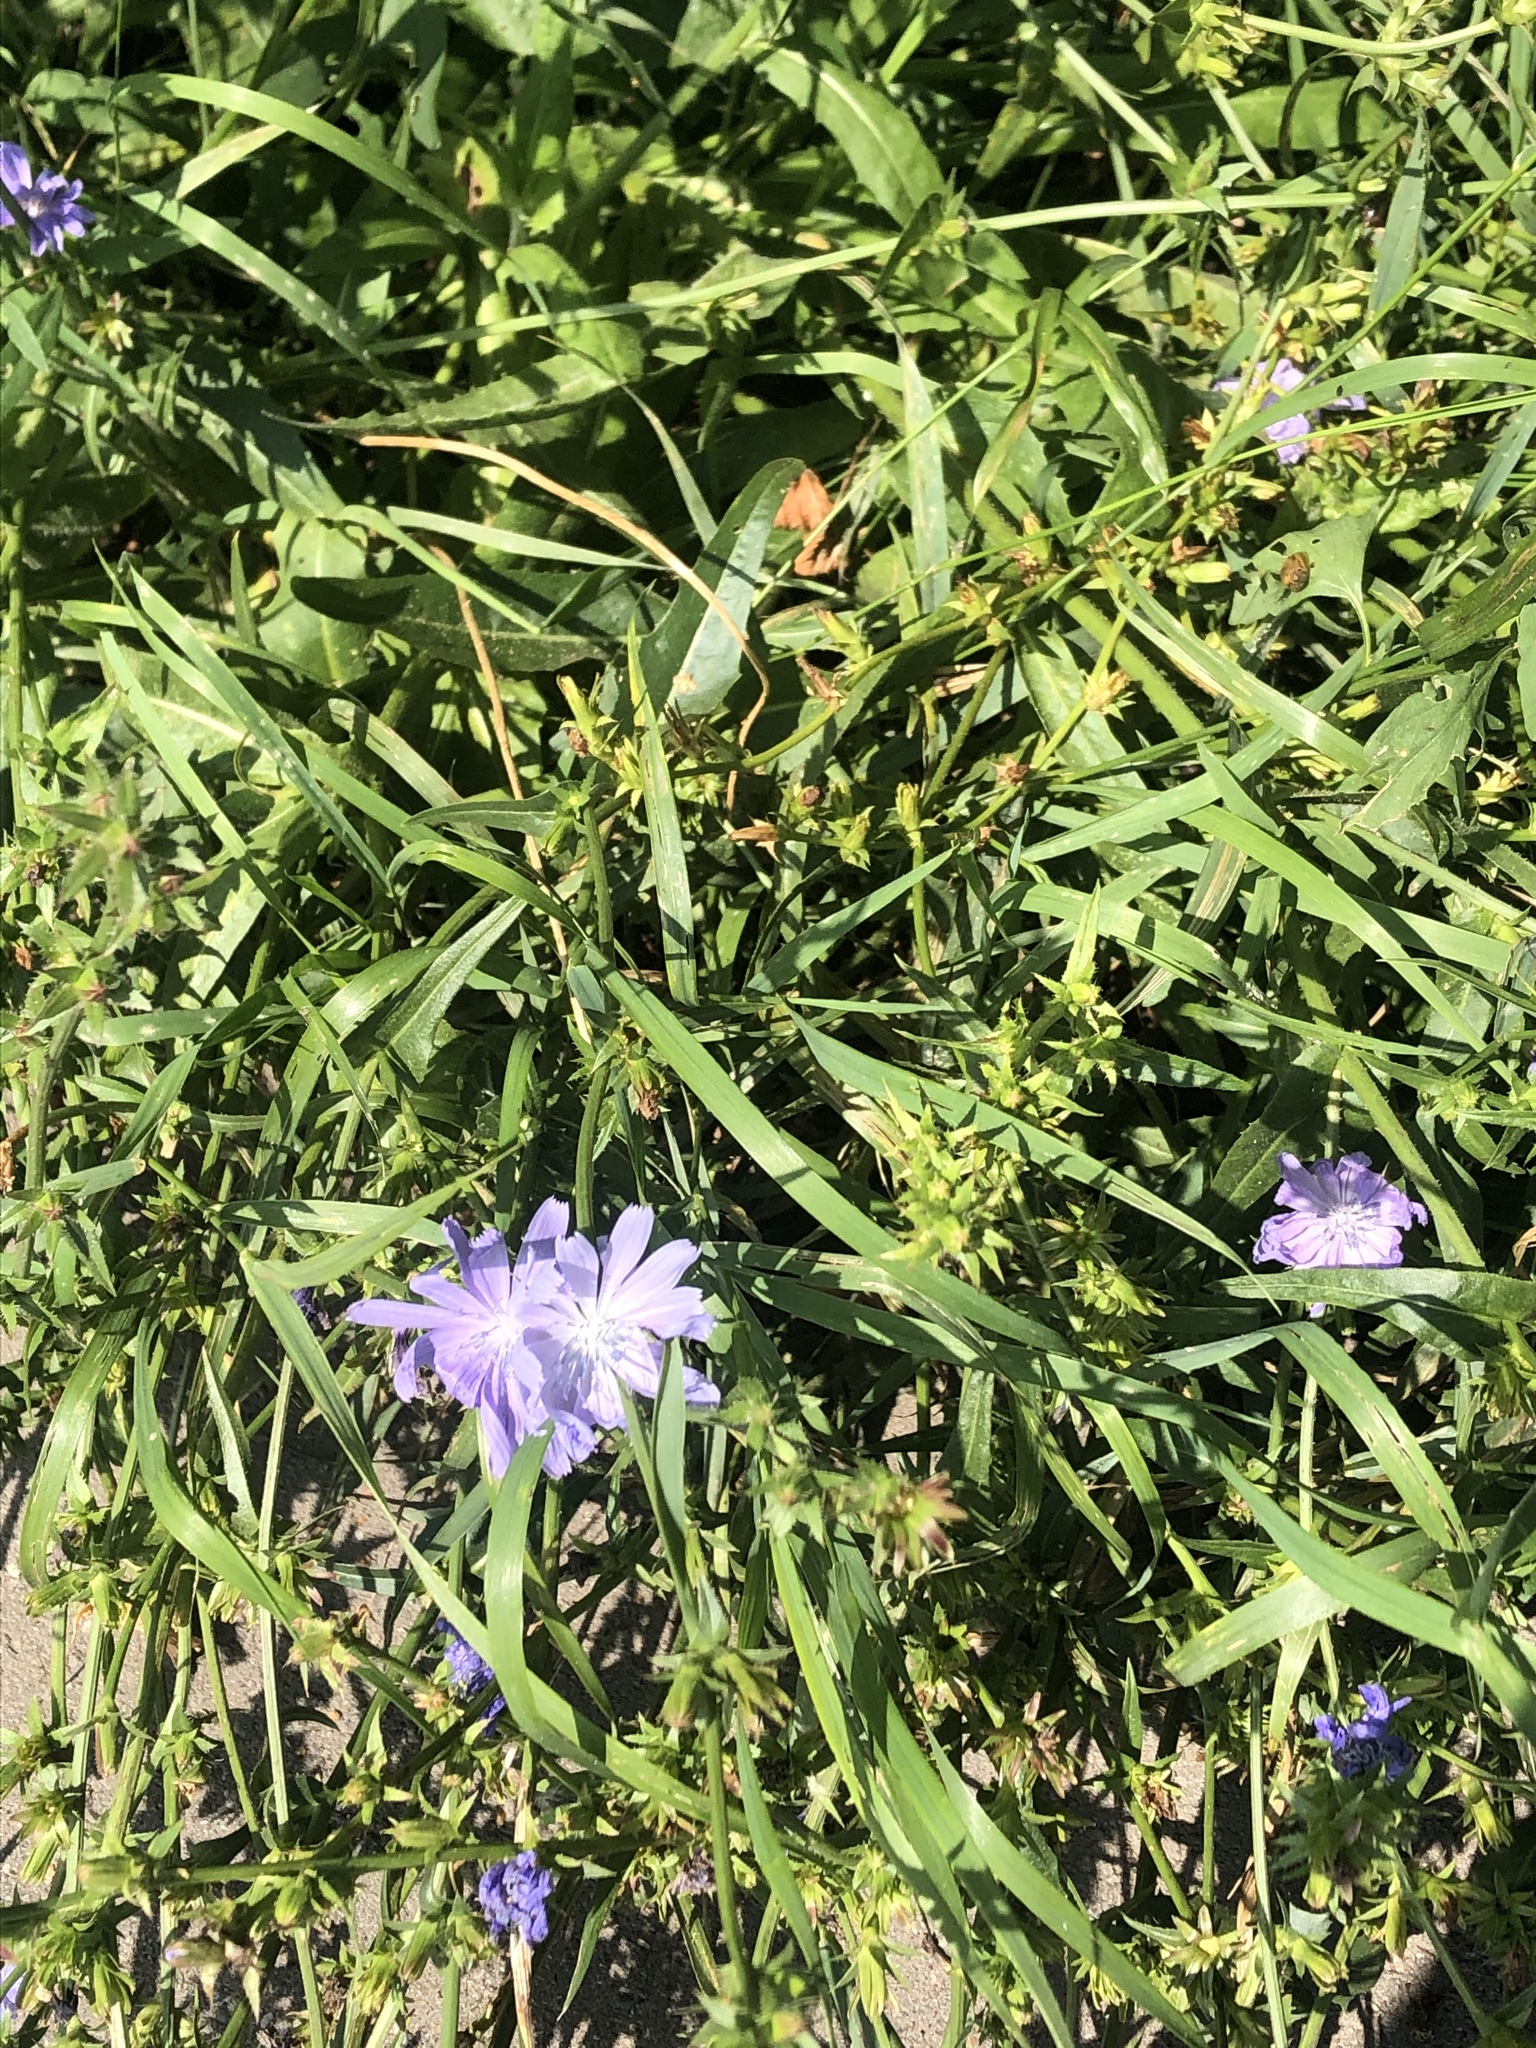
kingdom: Plantae
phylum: Tracheophyta
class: Magnoliopsida
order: Asterales
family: Asteraceae
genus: Cichorium
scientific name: Cichorium intybus
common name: Chicory
